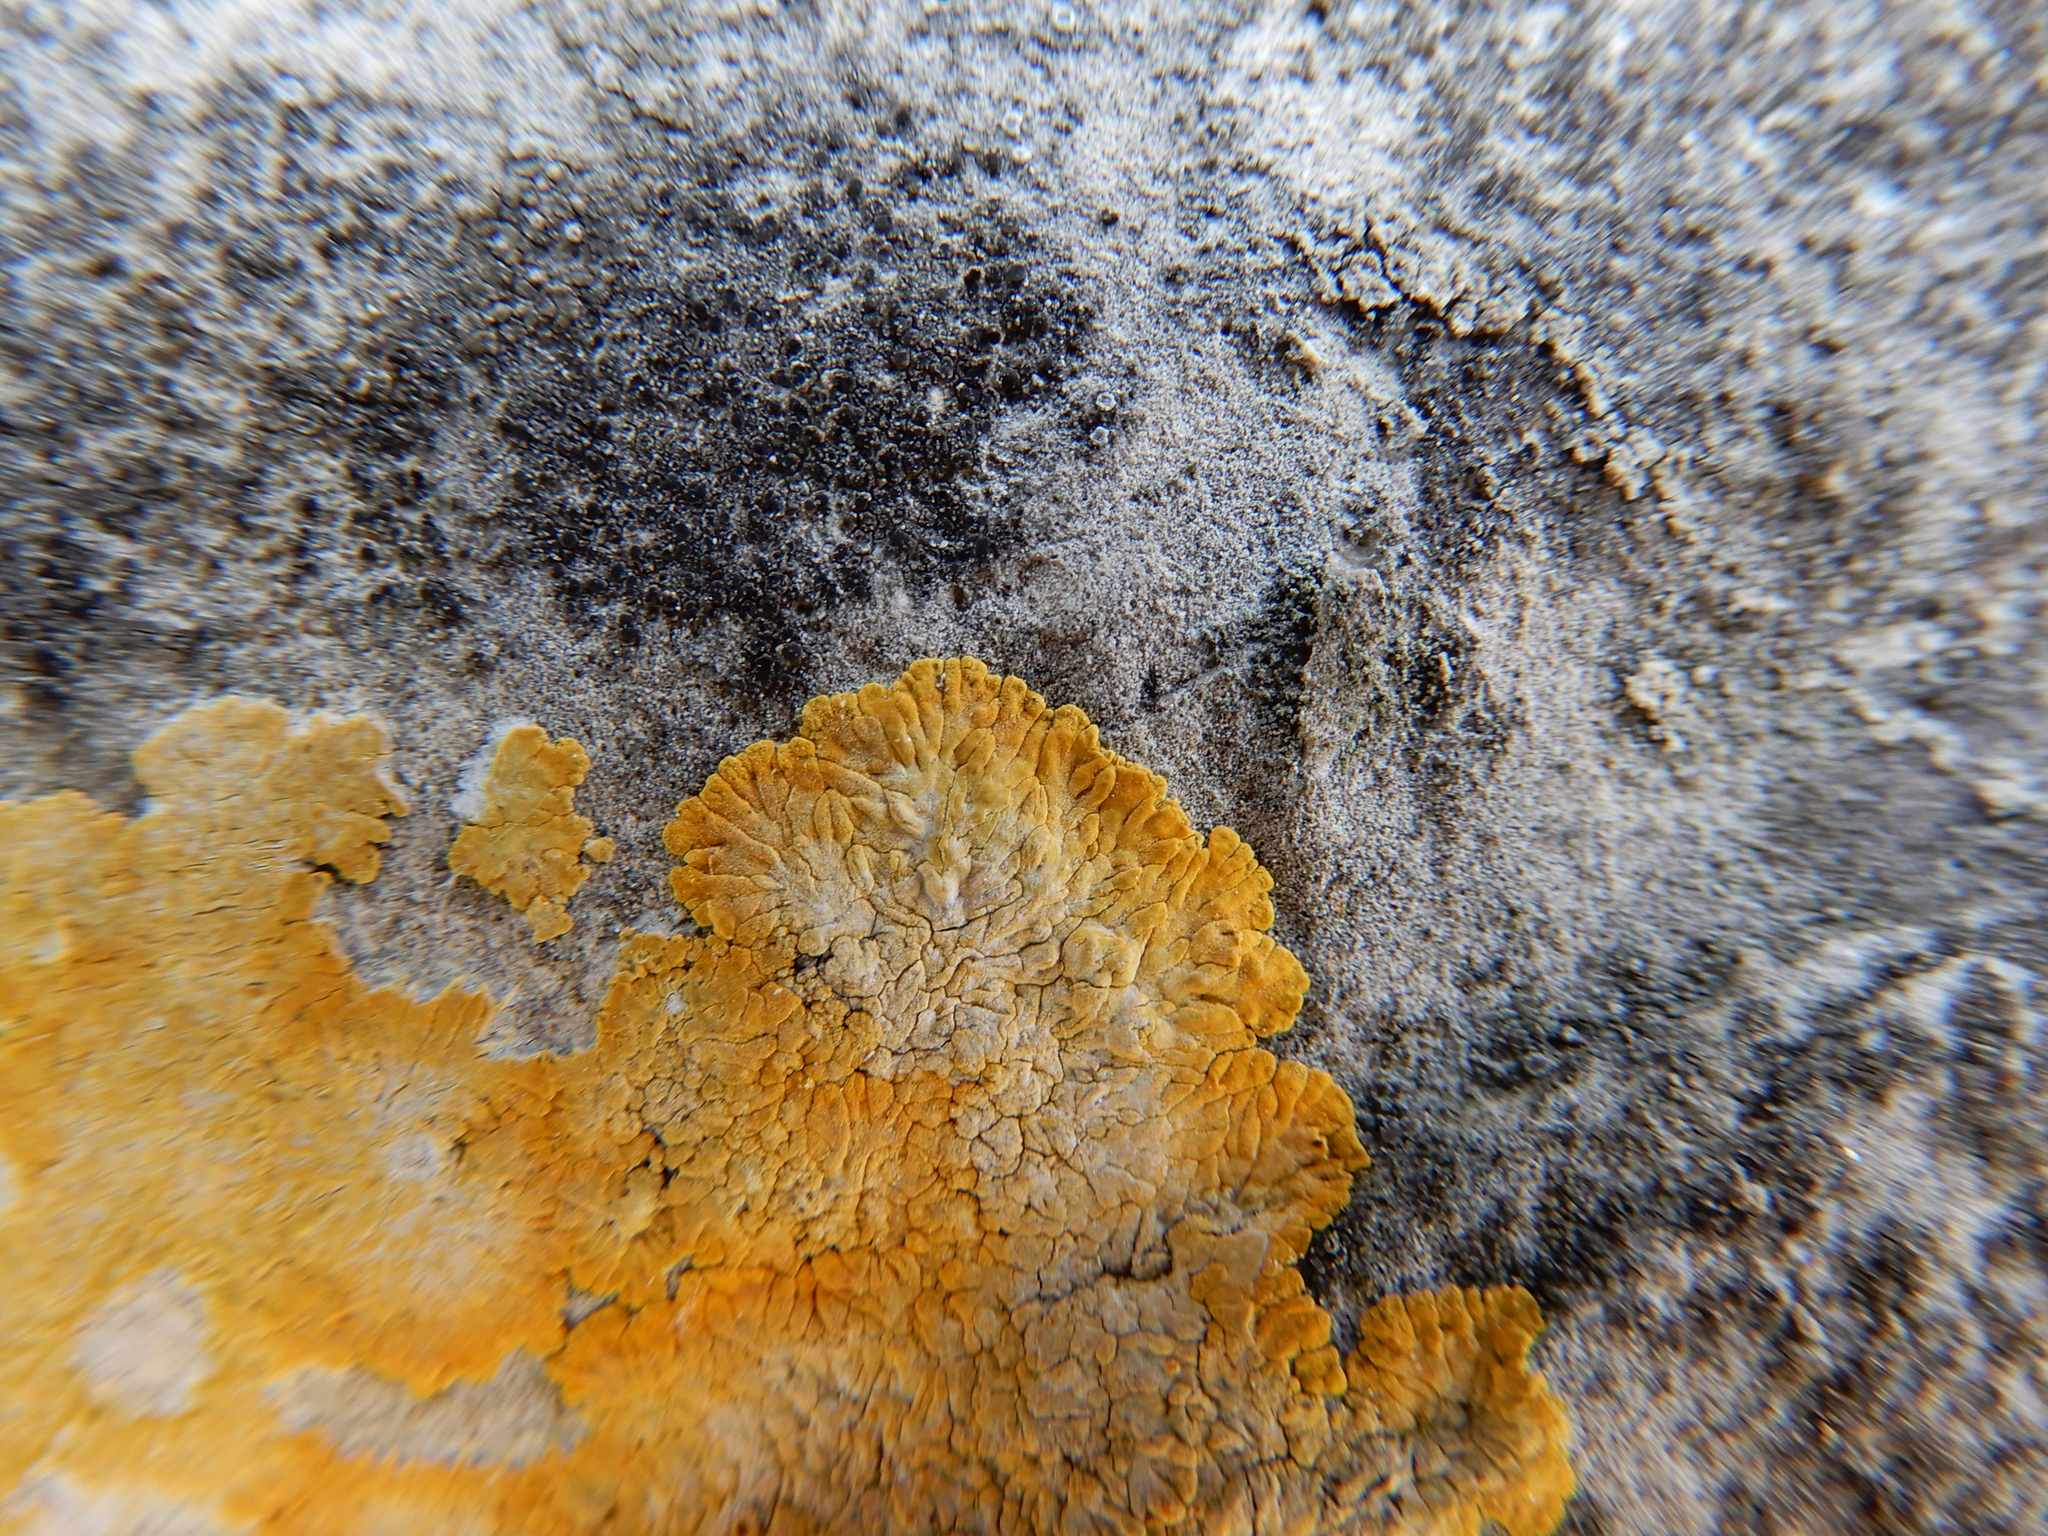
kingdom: Fungi
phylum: Ascomycota
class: Lecanoromycetes
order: Teloschistales
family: Teloschistaceae
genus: Variospora
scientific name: Variospora aurantia
